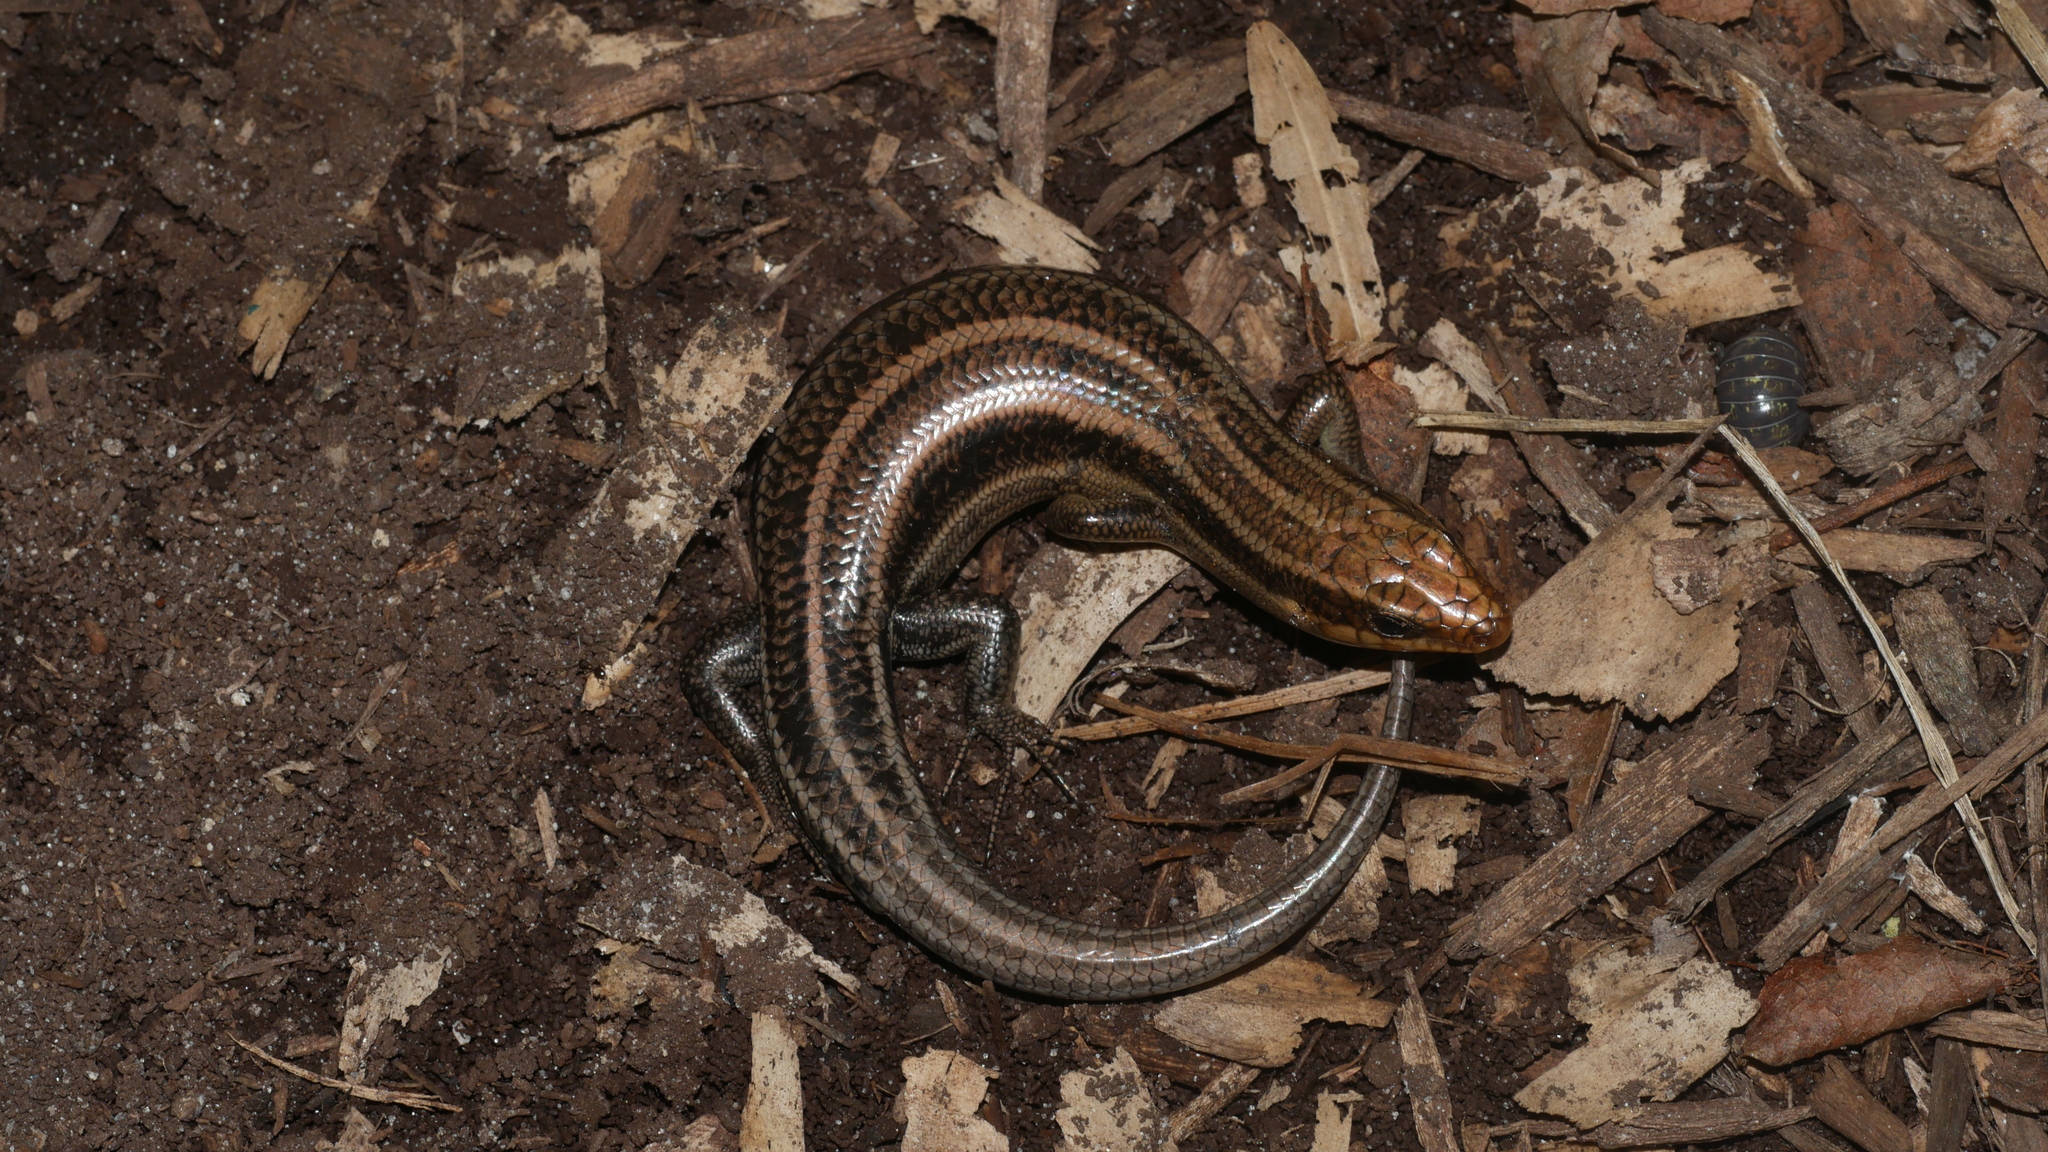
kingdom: Animalia
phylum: Chordata
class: Squamata
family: Scincidae
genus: Plestiodon
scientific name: Plestiodon fasciatus
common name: Five-lined skink
